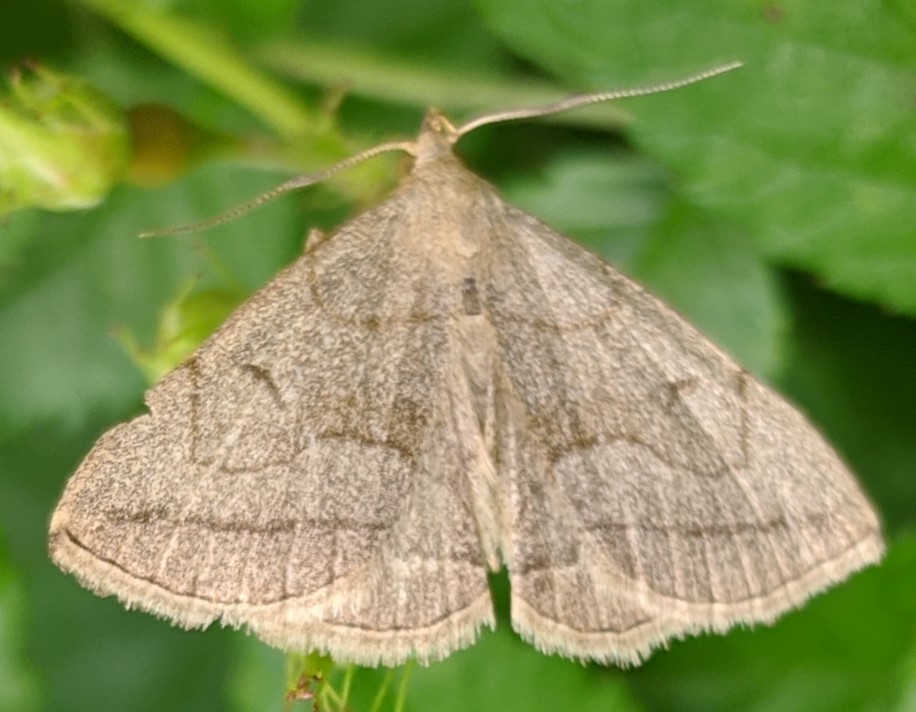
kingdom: Animalia
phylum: Arthropoda
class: Insecta
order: Lepidoptera
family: Erebidae
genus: Zanclognatha
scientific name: Zanclognatha pedipilalis
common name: Grayish fan-foot
